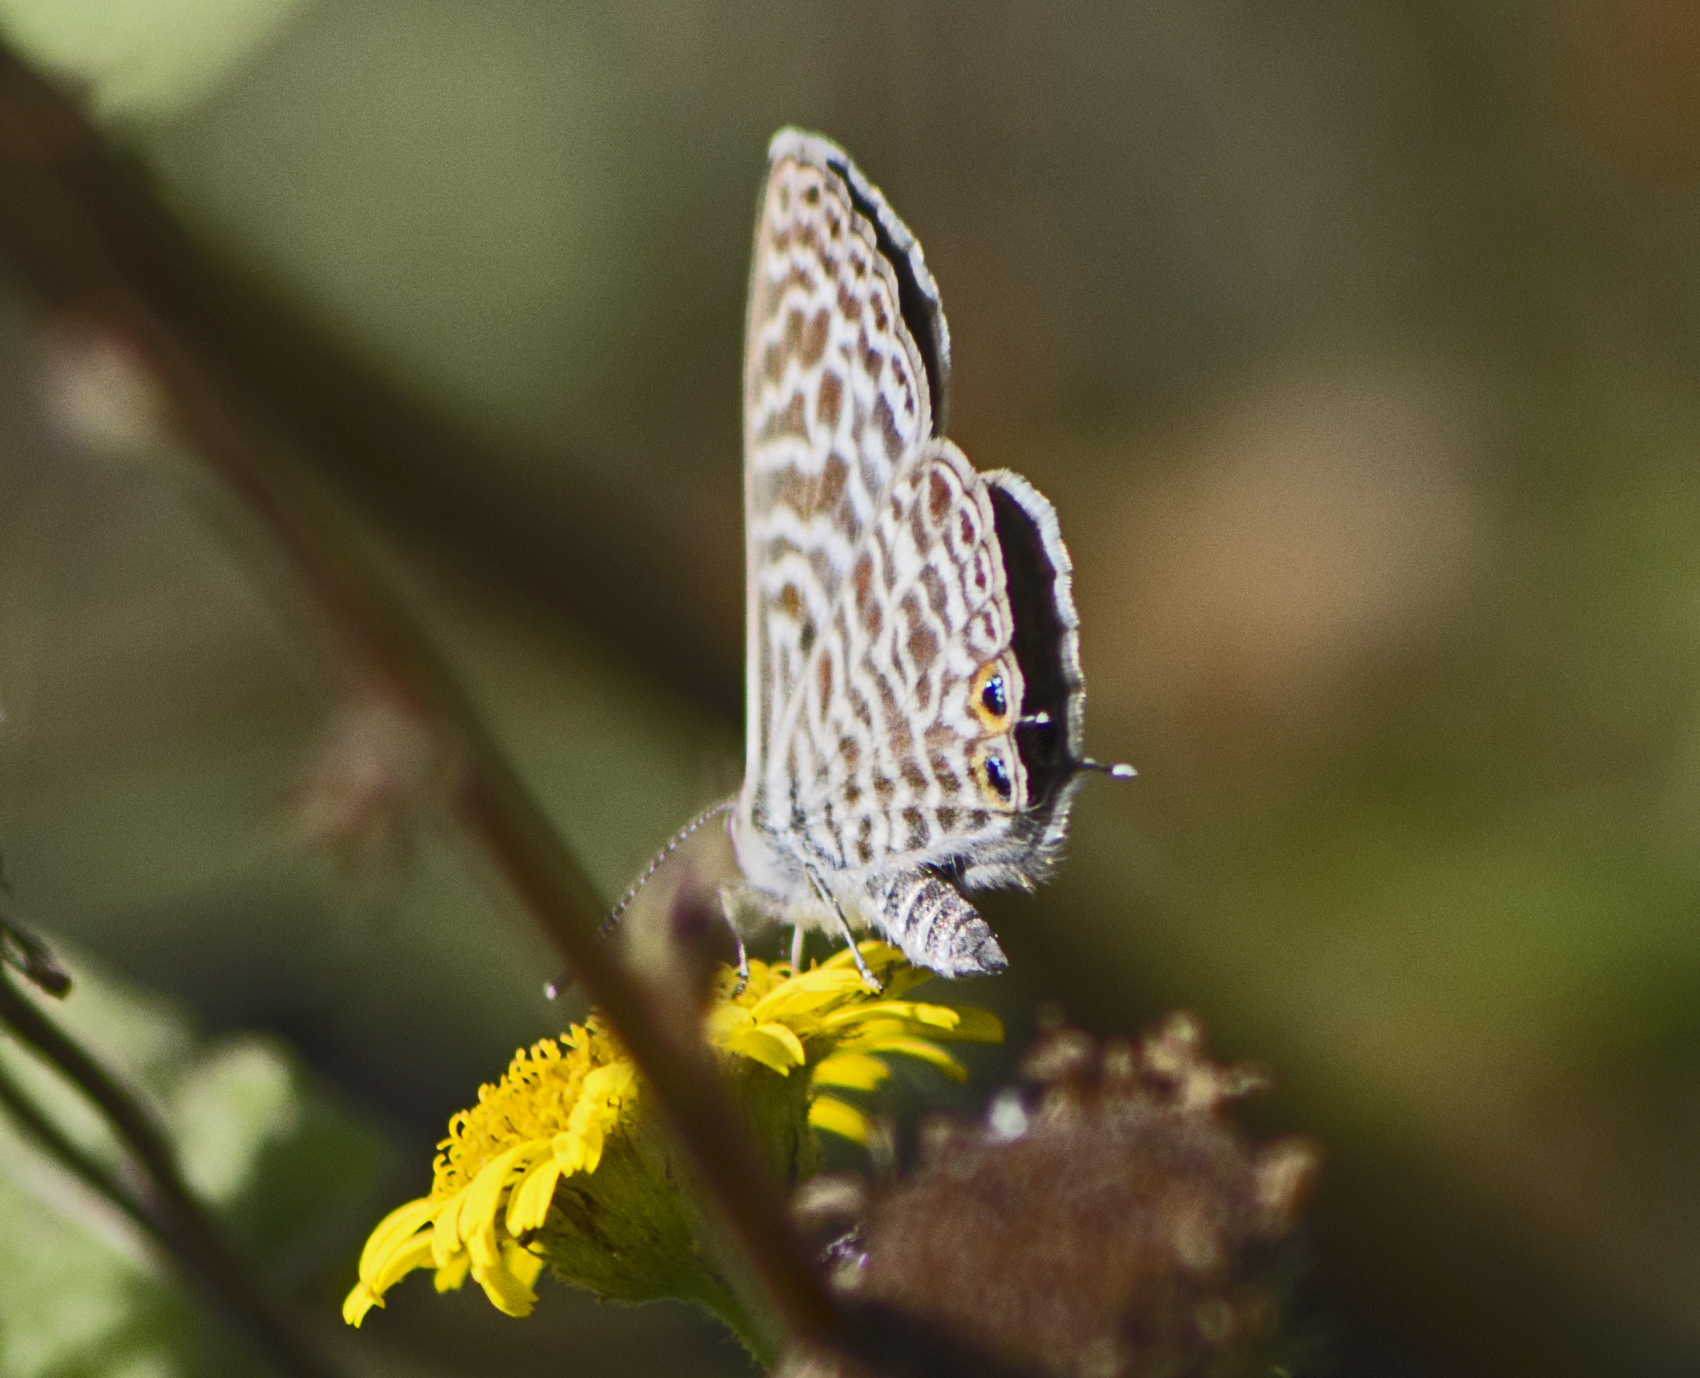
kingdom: Animalia
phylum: Arthropoda
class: Insecta
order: Lepidoptera
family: Lycaenidae
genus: Leptotes
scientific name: Leptotes pirithous
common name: Lang's short-tailed blue
